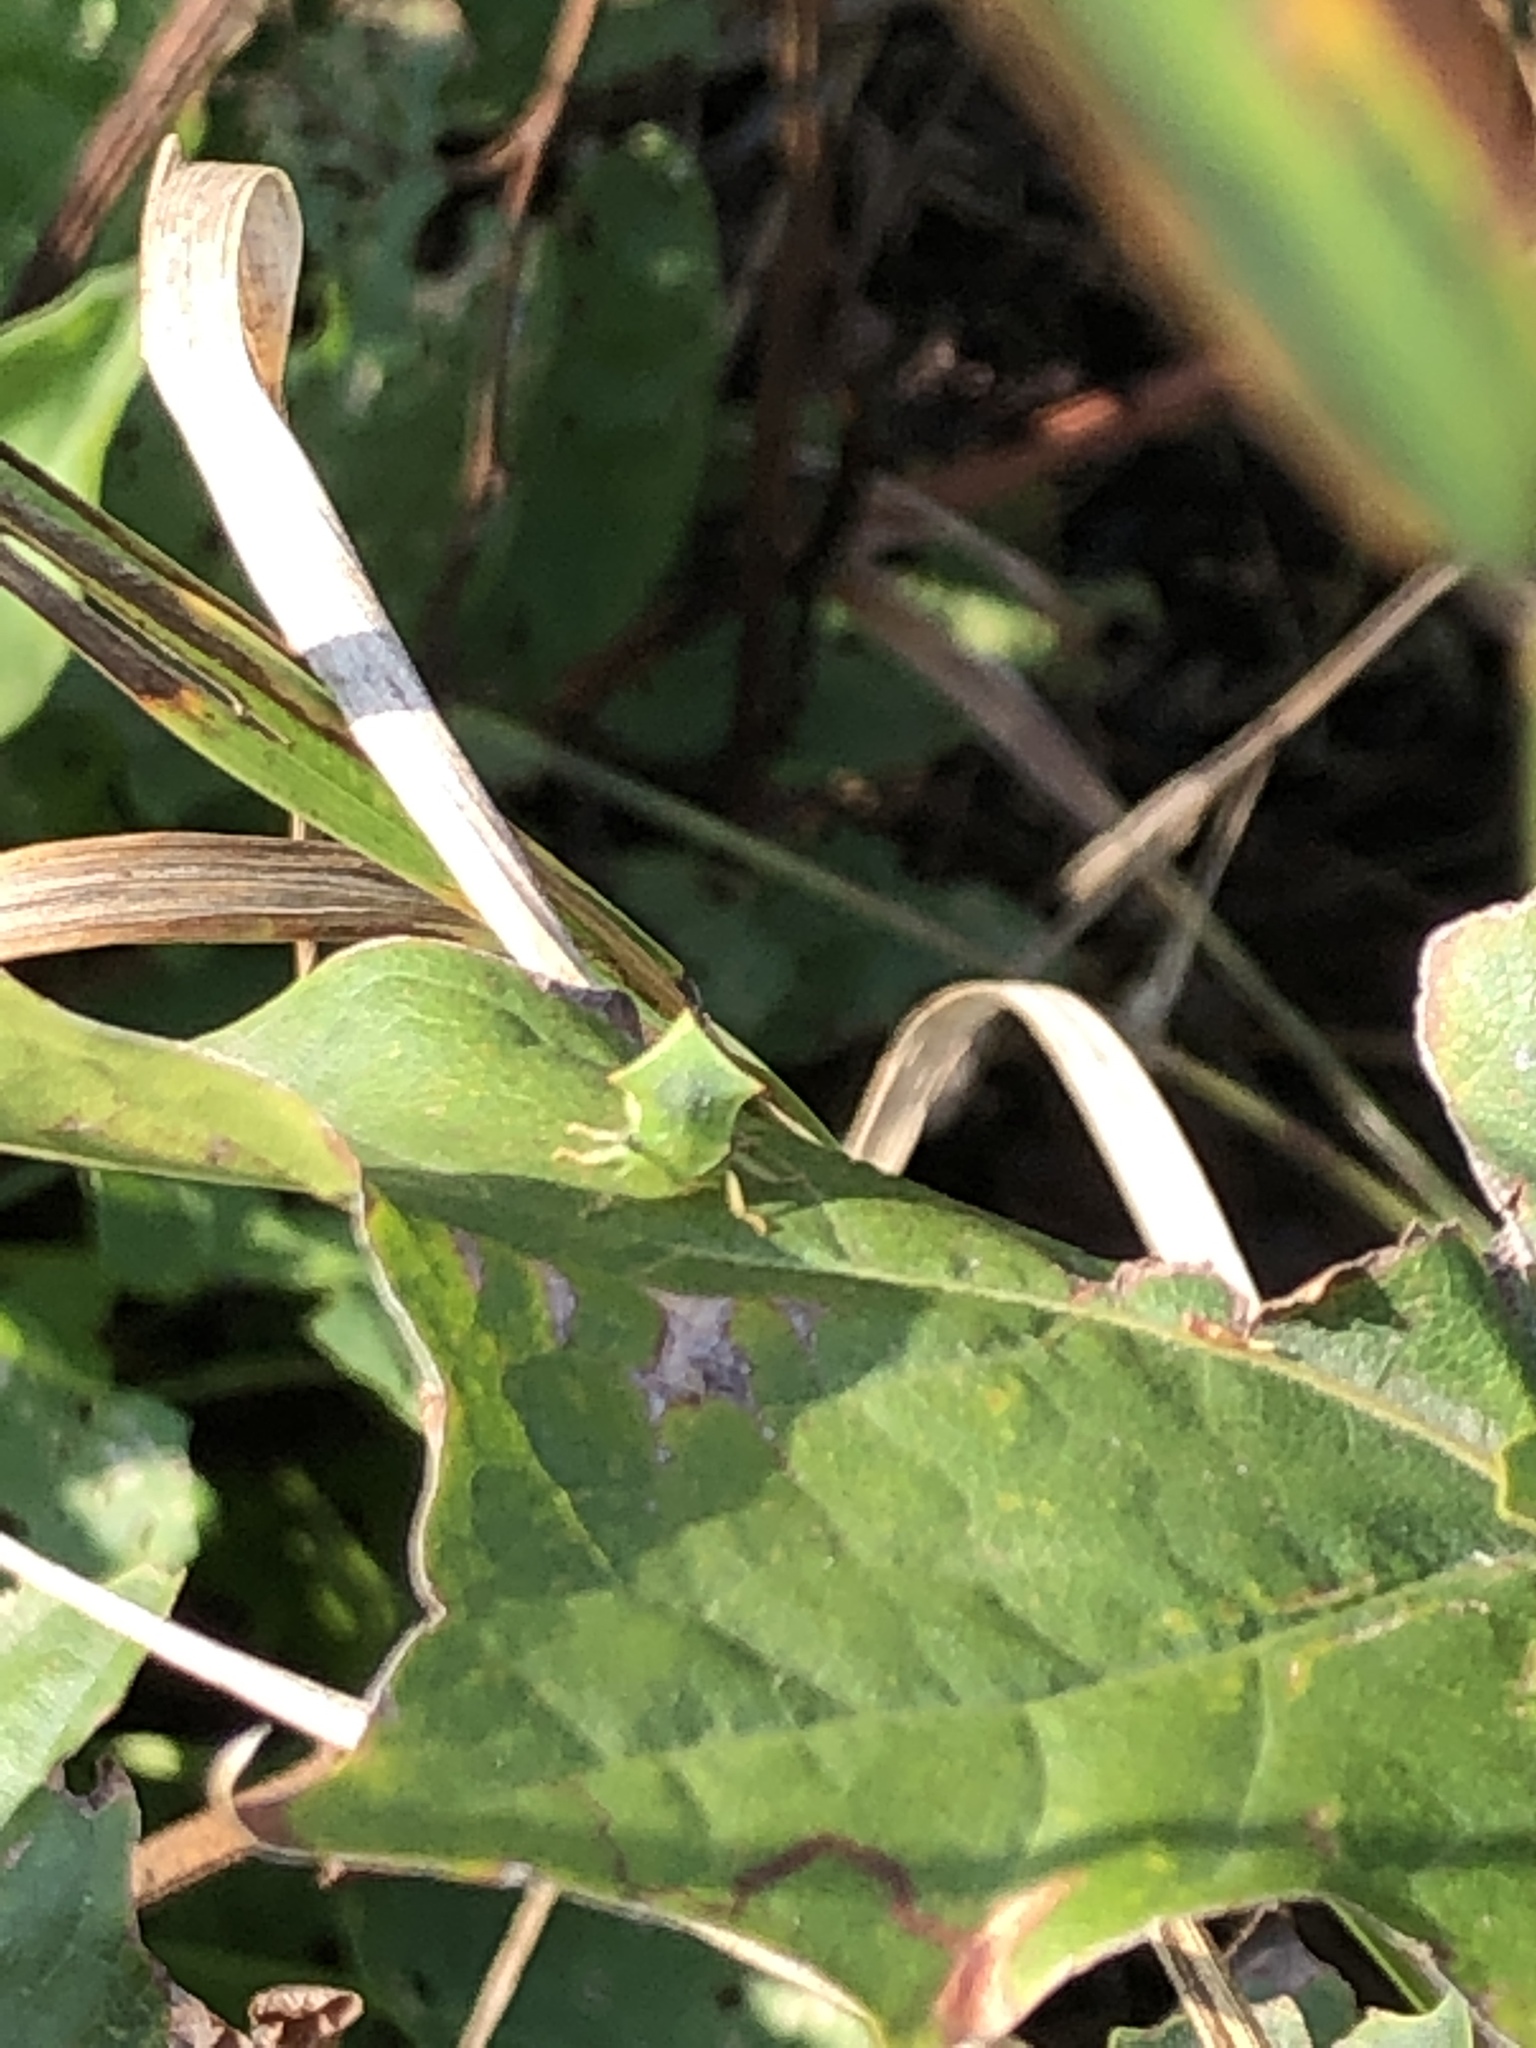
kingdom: Animalia
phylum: Arthropoda
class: Insecta
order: Hemiptera
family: Membracidae
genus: Stictocephala
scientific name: Stictocephala bisonia
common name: American buffalo treehopper
